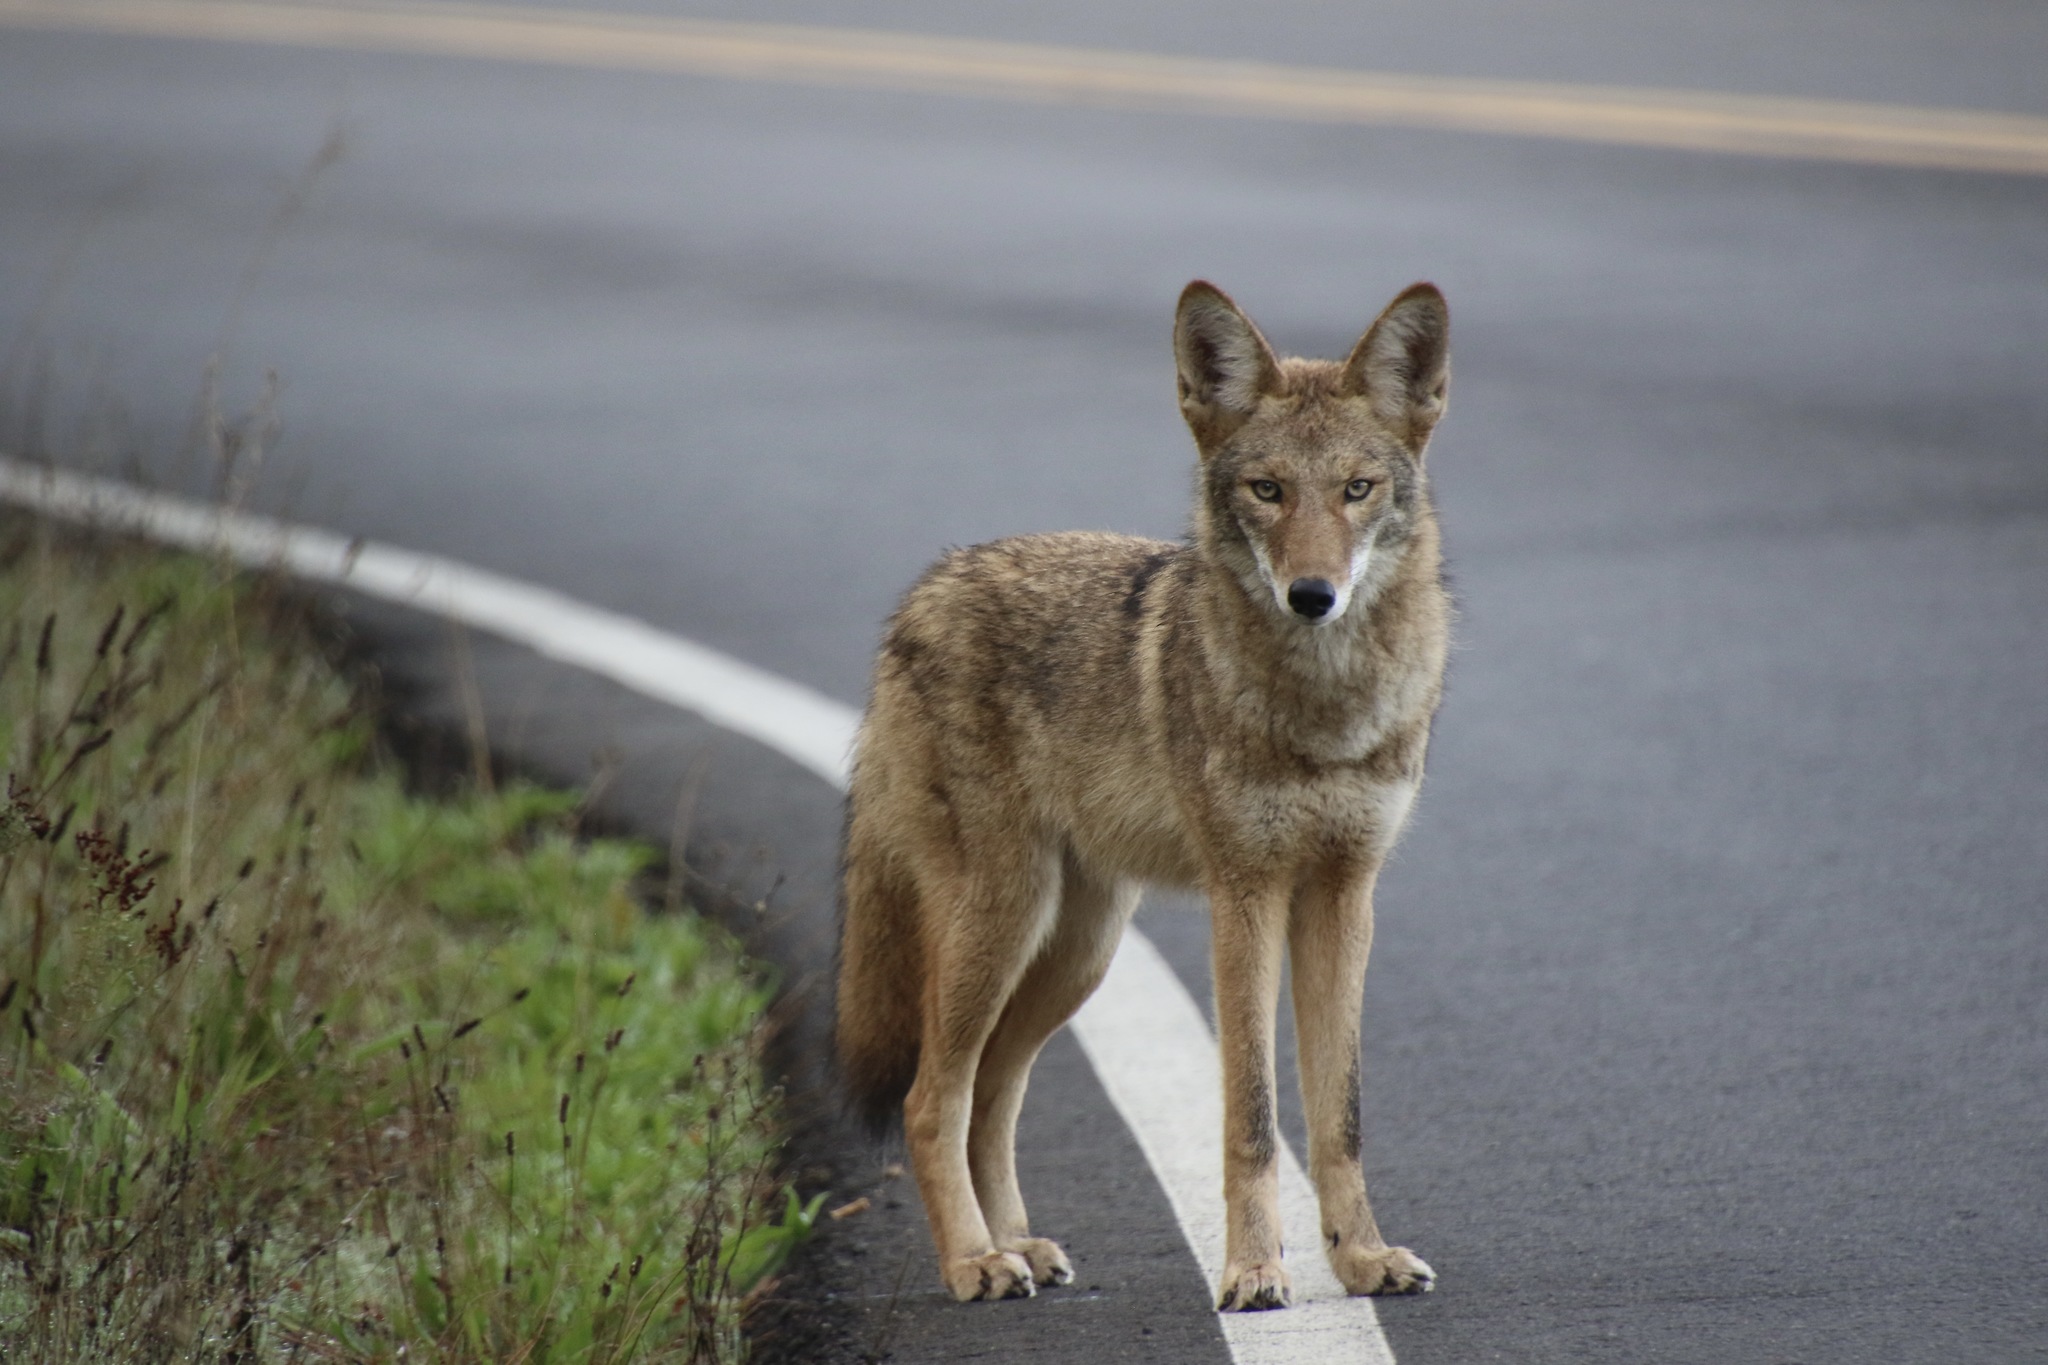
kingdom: Animalia
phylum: Chordata
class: Mammalia
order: Carnivora
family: Canidae
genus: Canis
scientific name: Canis latrans
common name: Coyote
